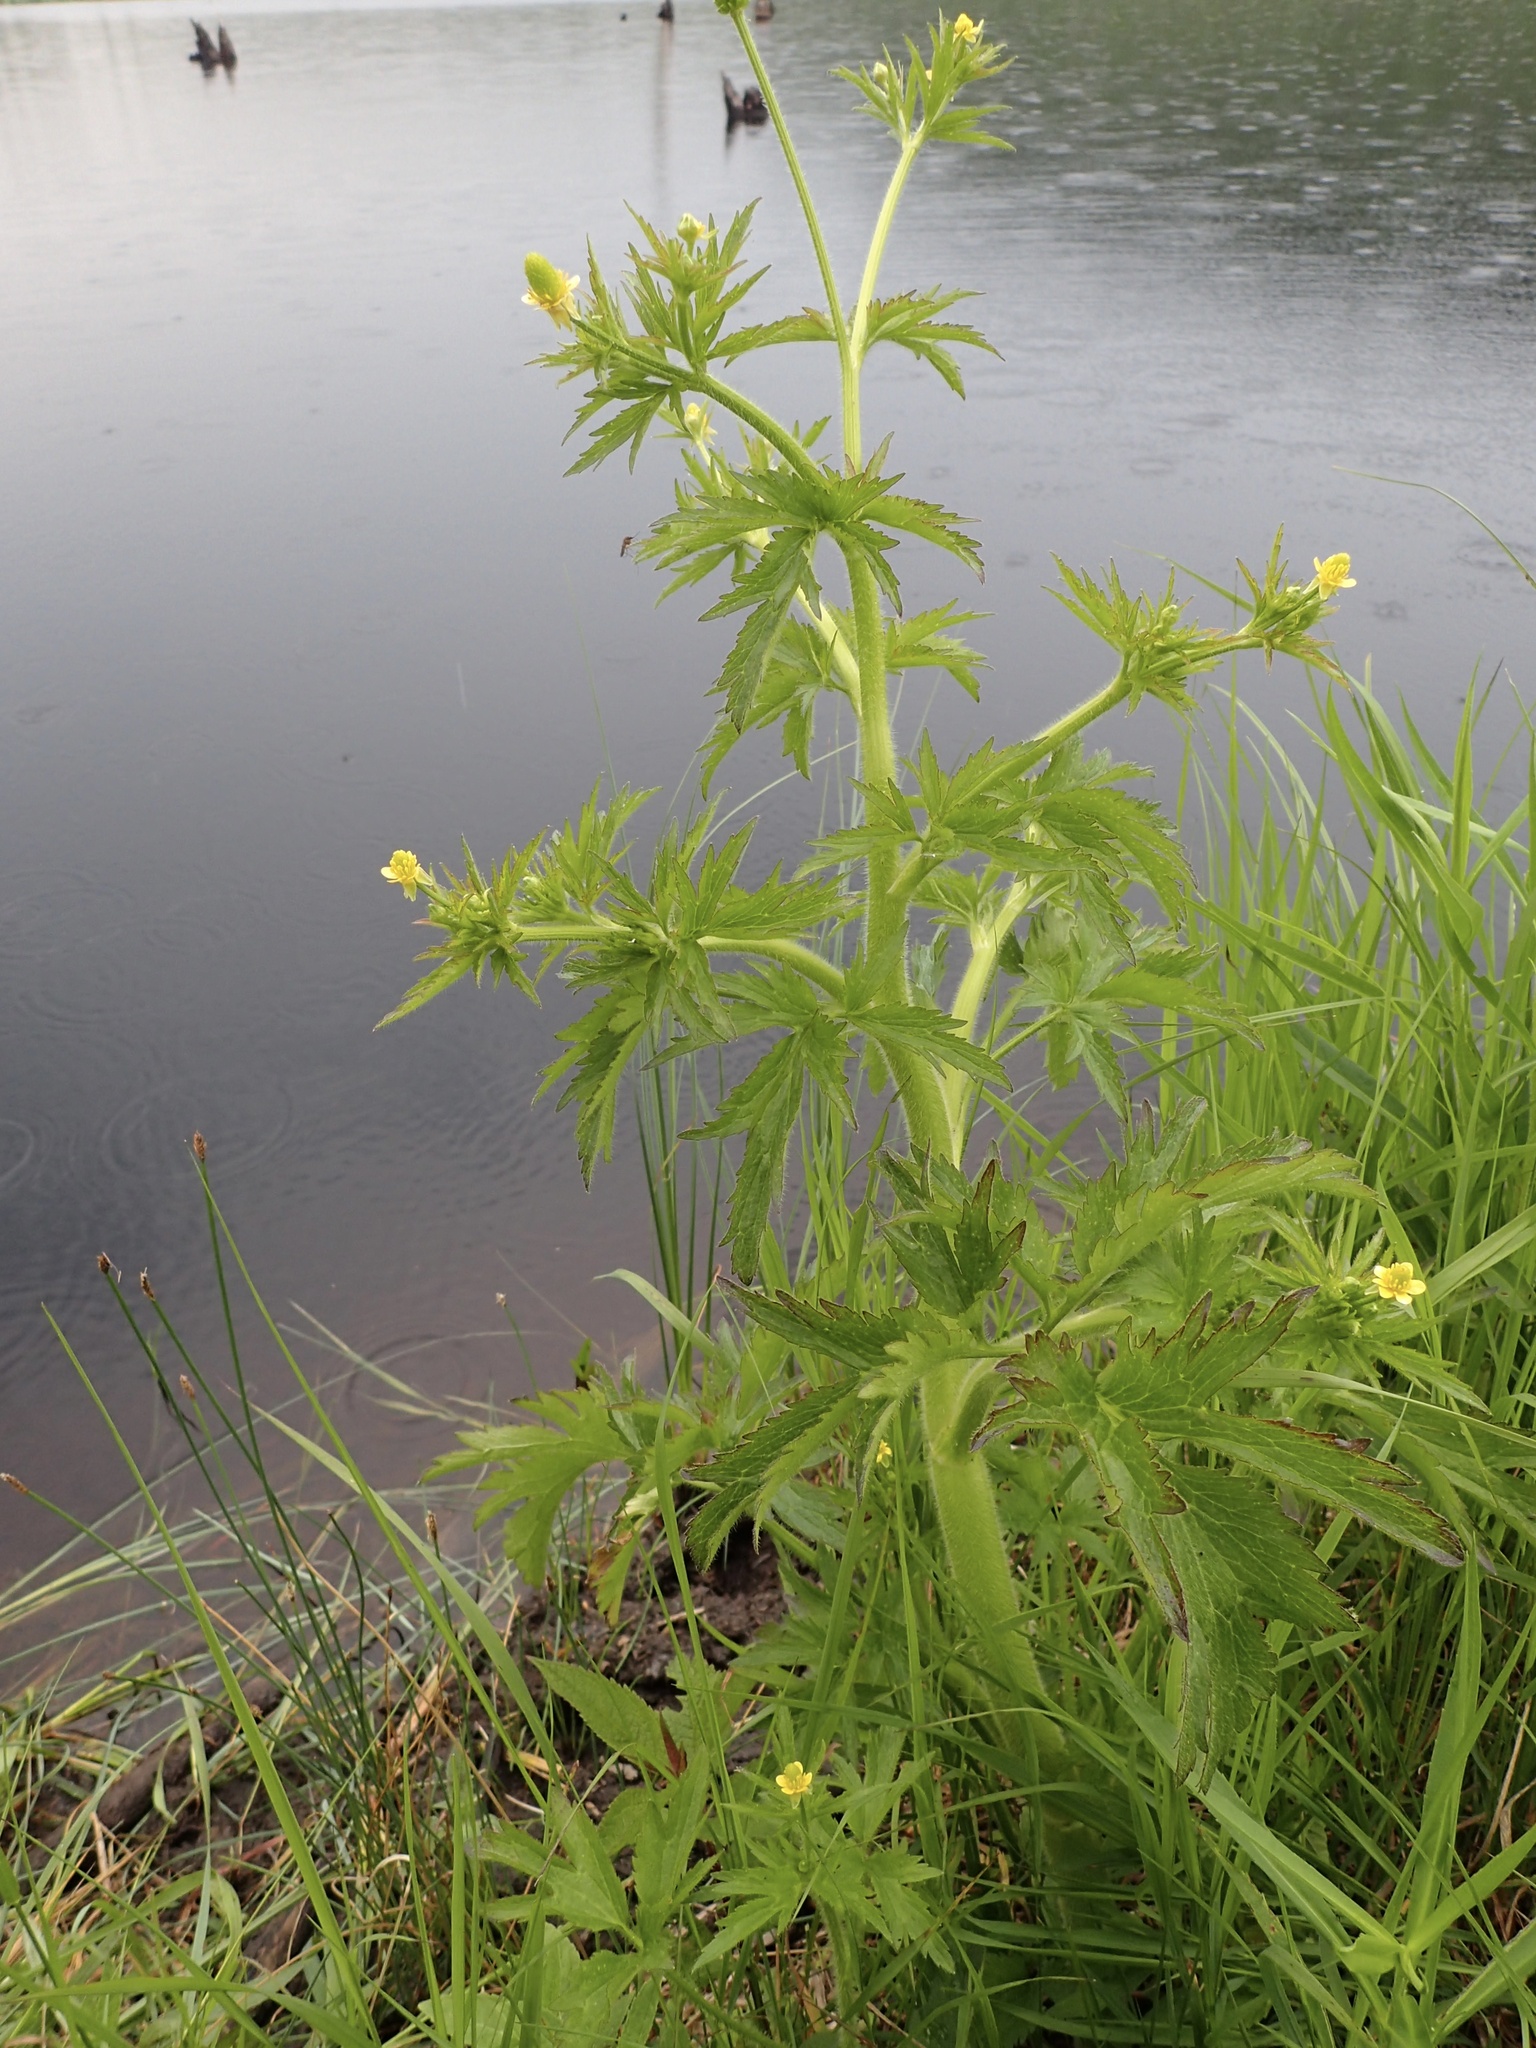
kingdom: Plantae
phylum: Tracheophyta
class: Magnoliopsida
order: Ranunculales
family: Ranunculaceae
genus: Ranunculus
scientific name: Ranunculus pensylvanicus
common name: Bristly buttercup
